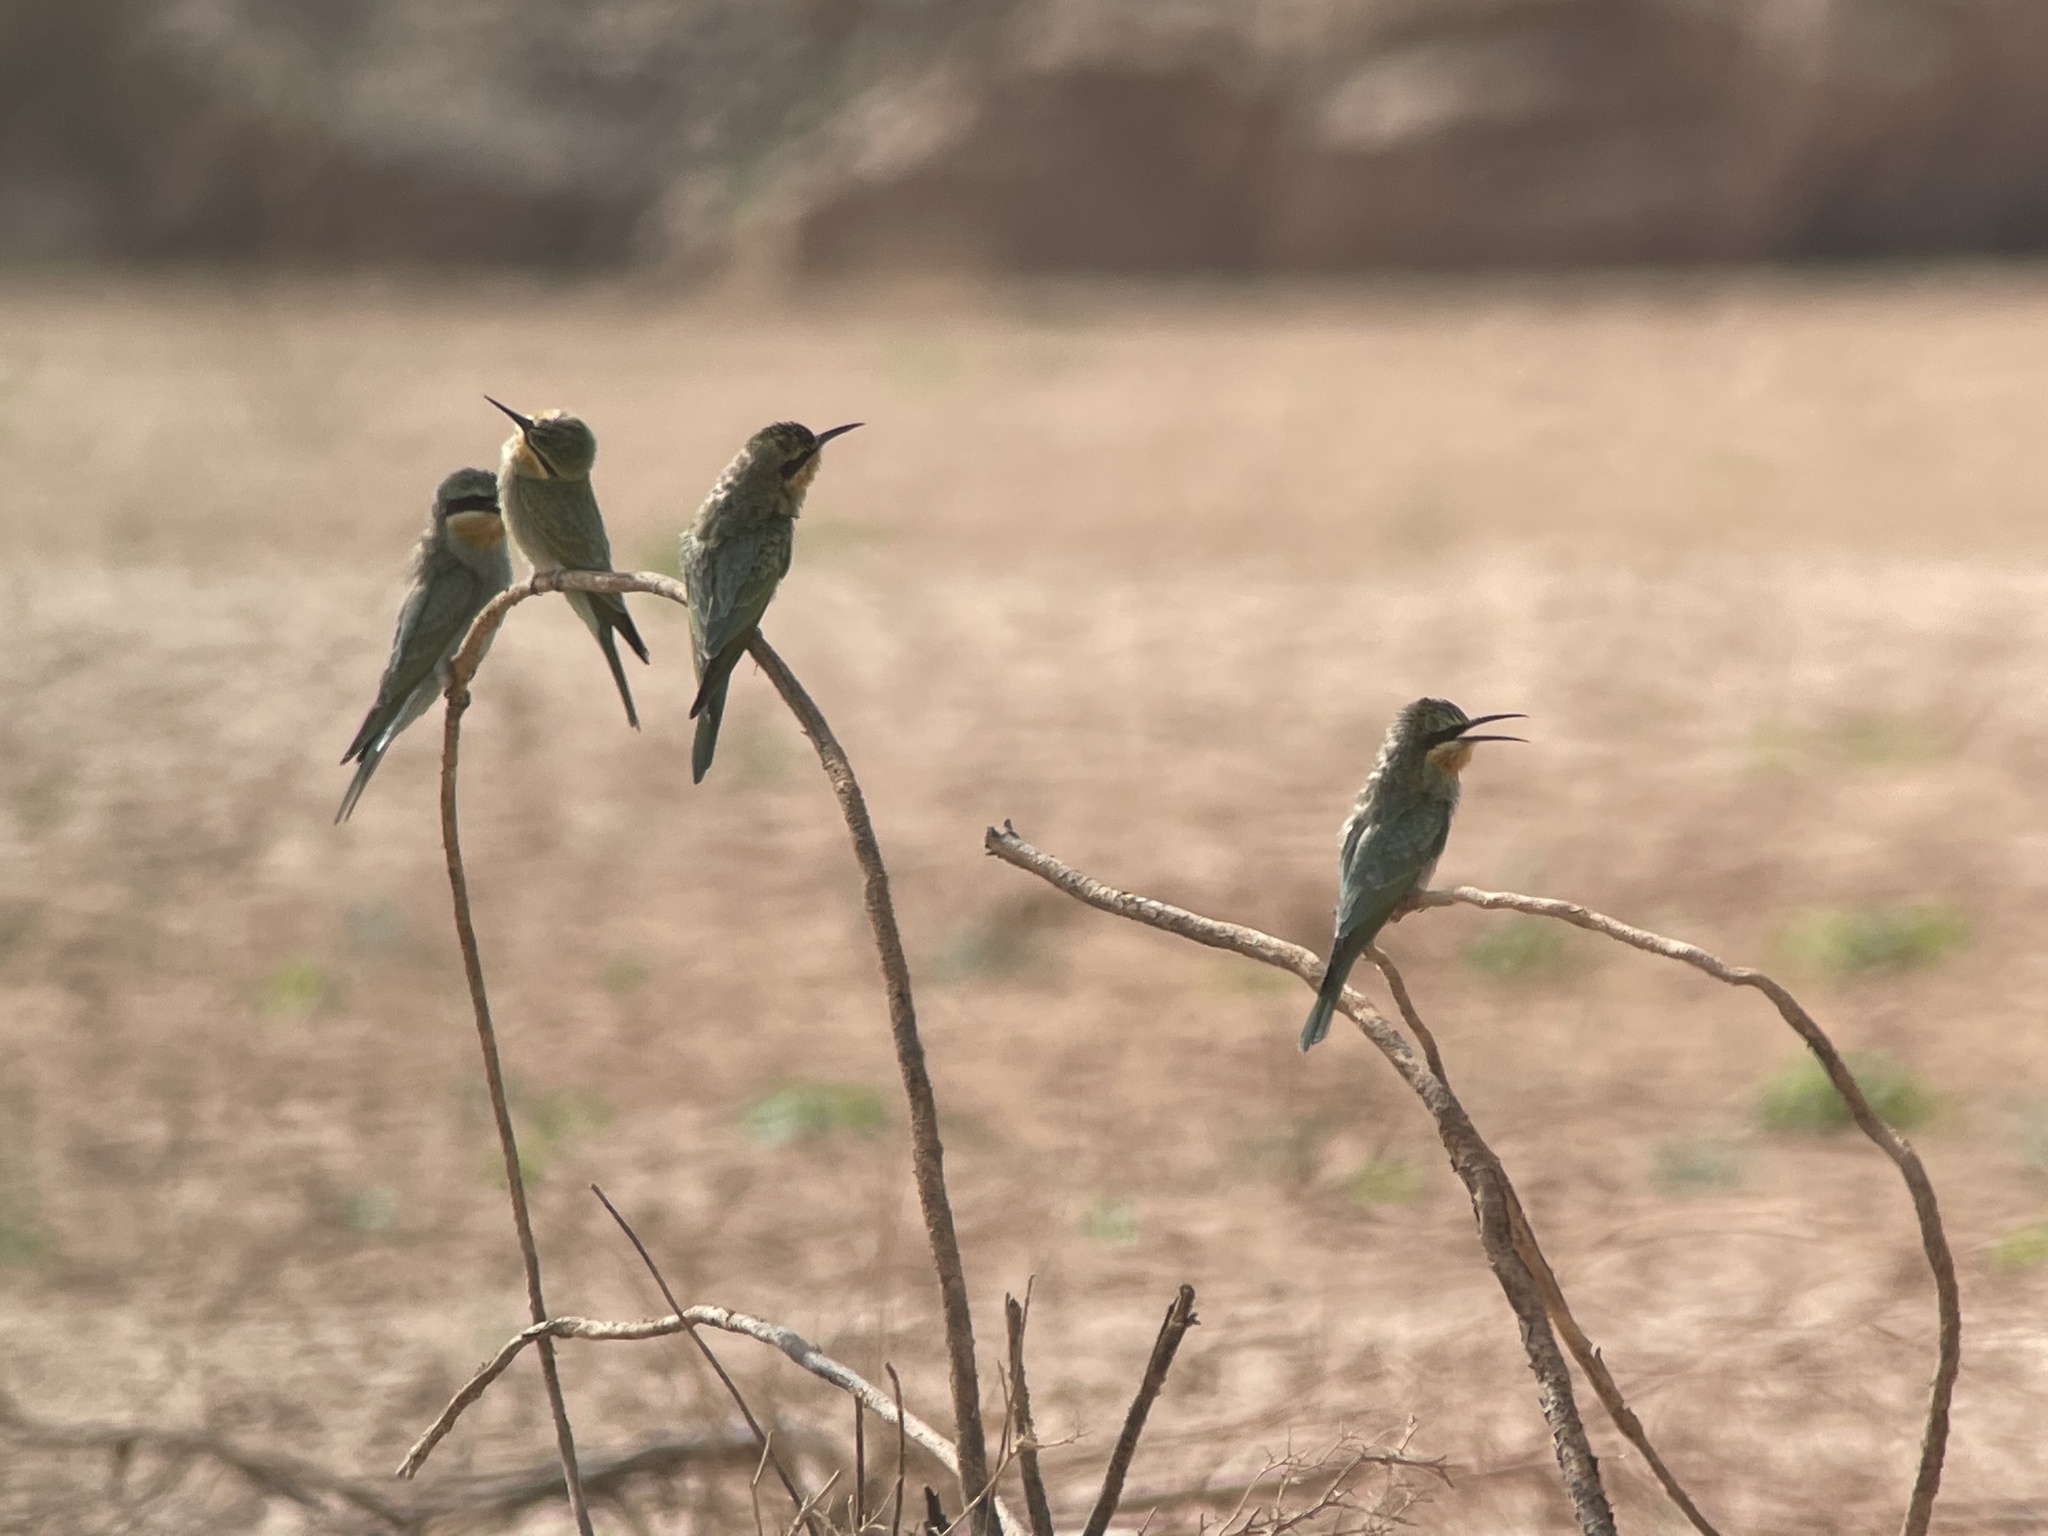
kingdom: Animalia
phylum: Chordata
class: Aves
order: Coraciiformes
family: Meropidae
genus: Merops
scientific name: Merops persicus
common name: Blue-cheeked bee-eater
